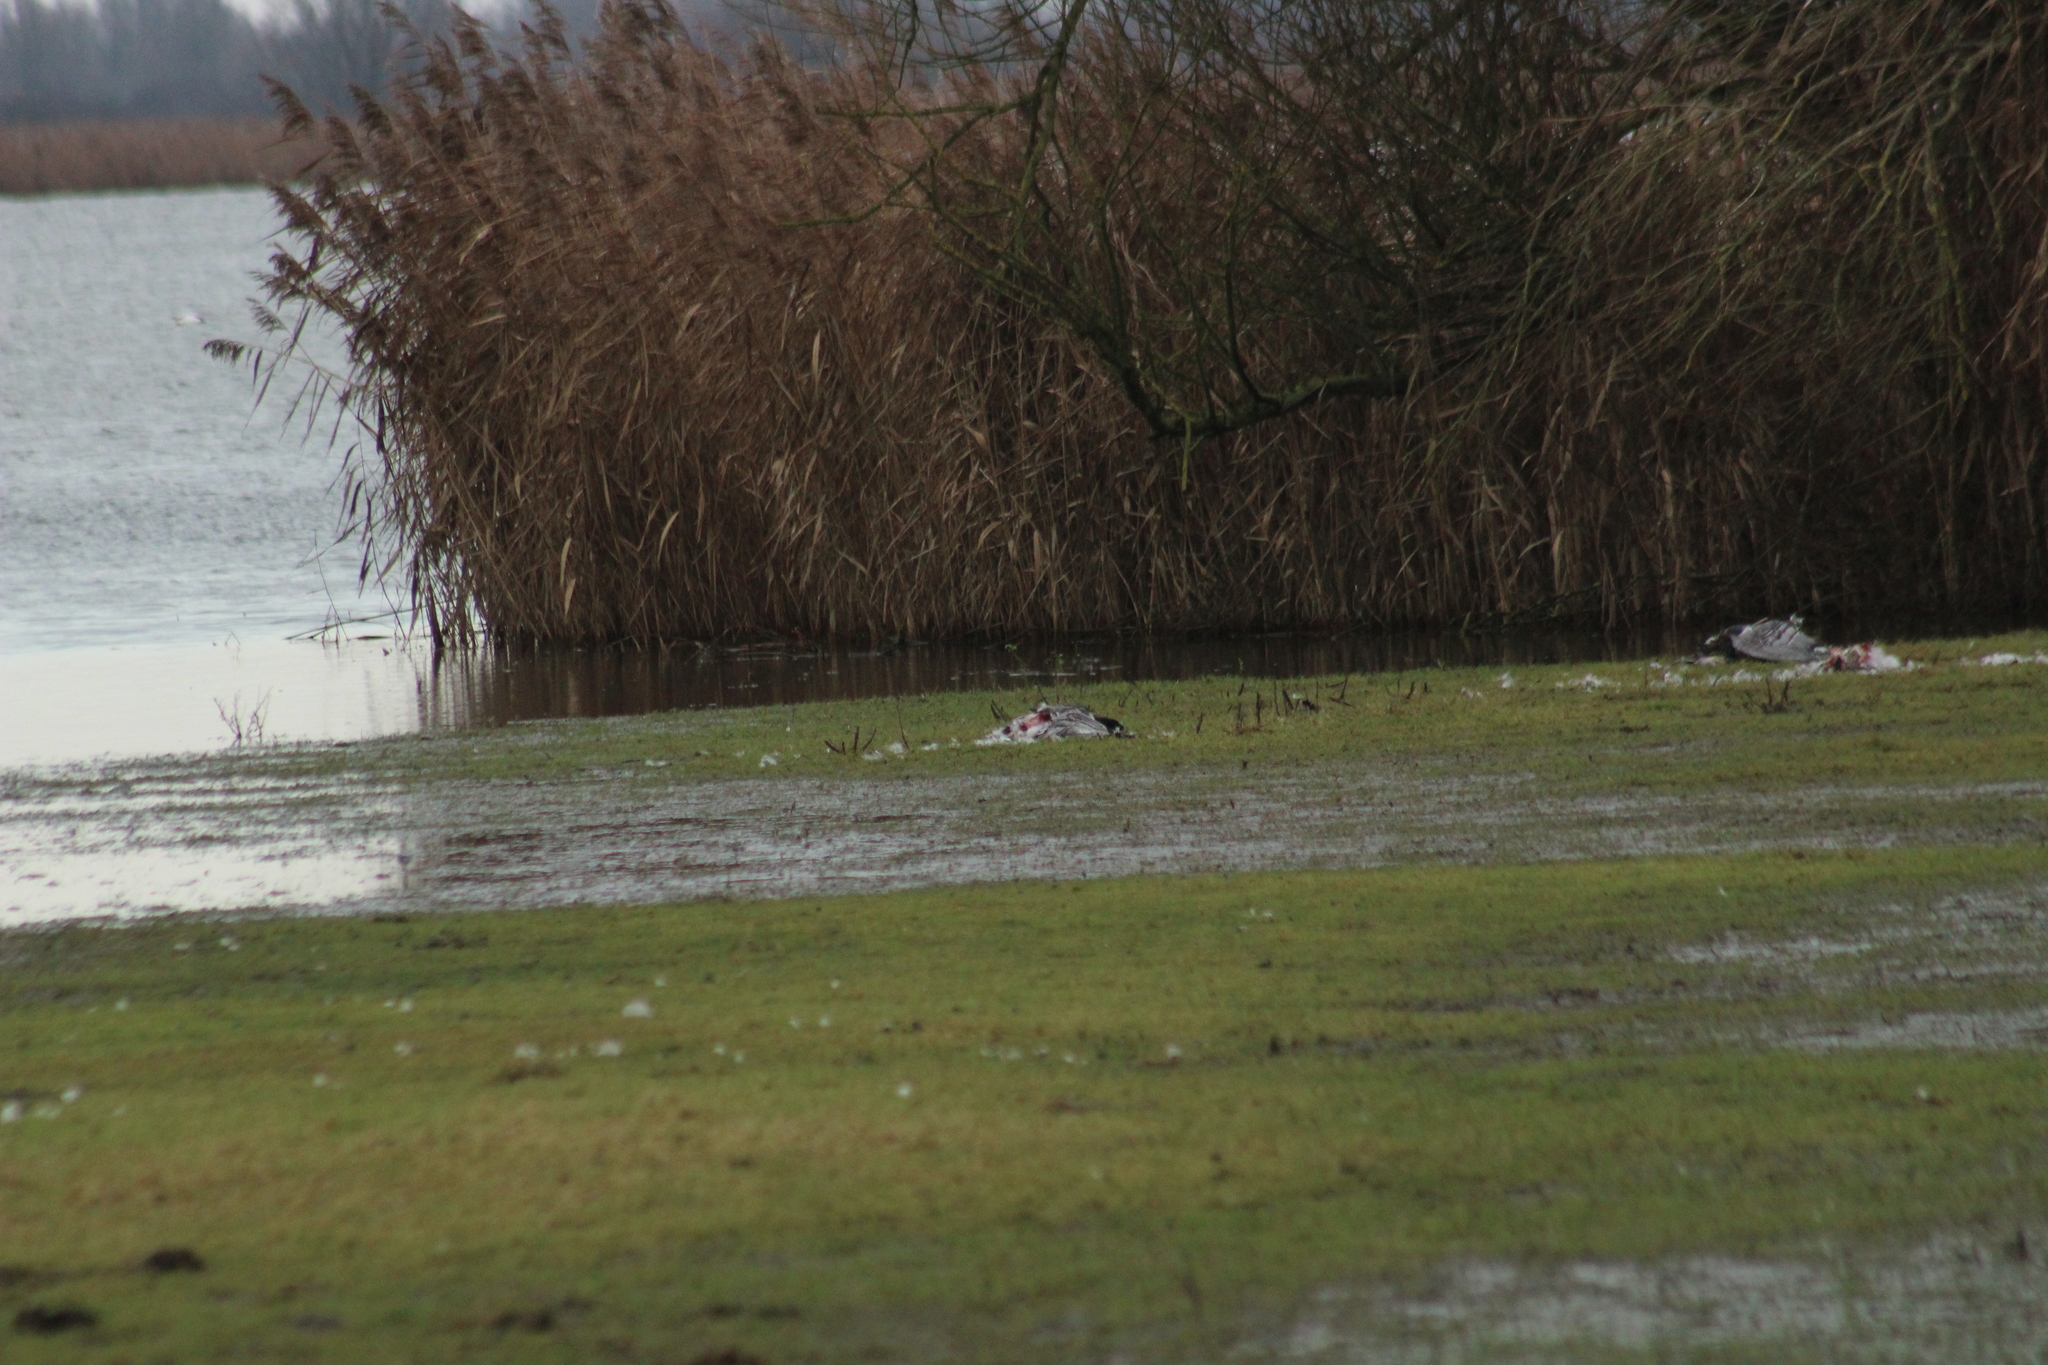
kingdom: Animalia
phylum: Chordata
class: Aves
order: Anseriformes
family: Anatidae
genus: Branta
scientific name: Branta leucopsis
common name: Barnacle goose
